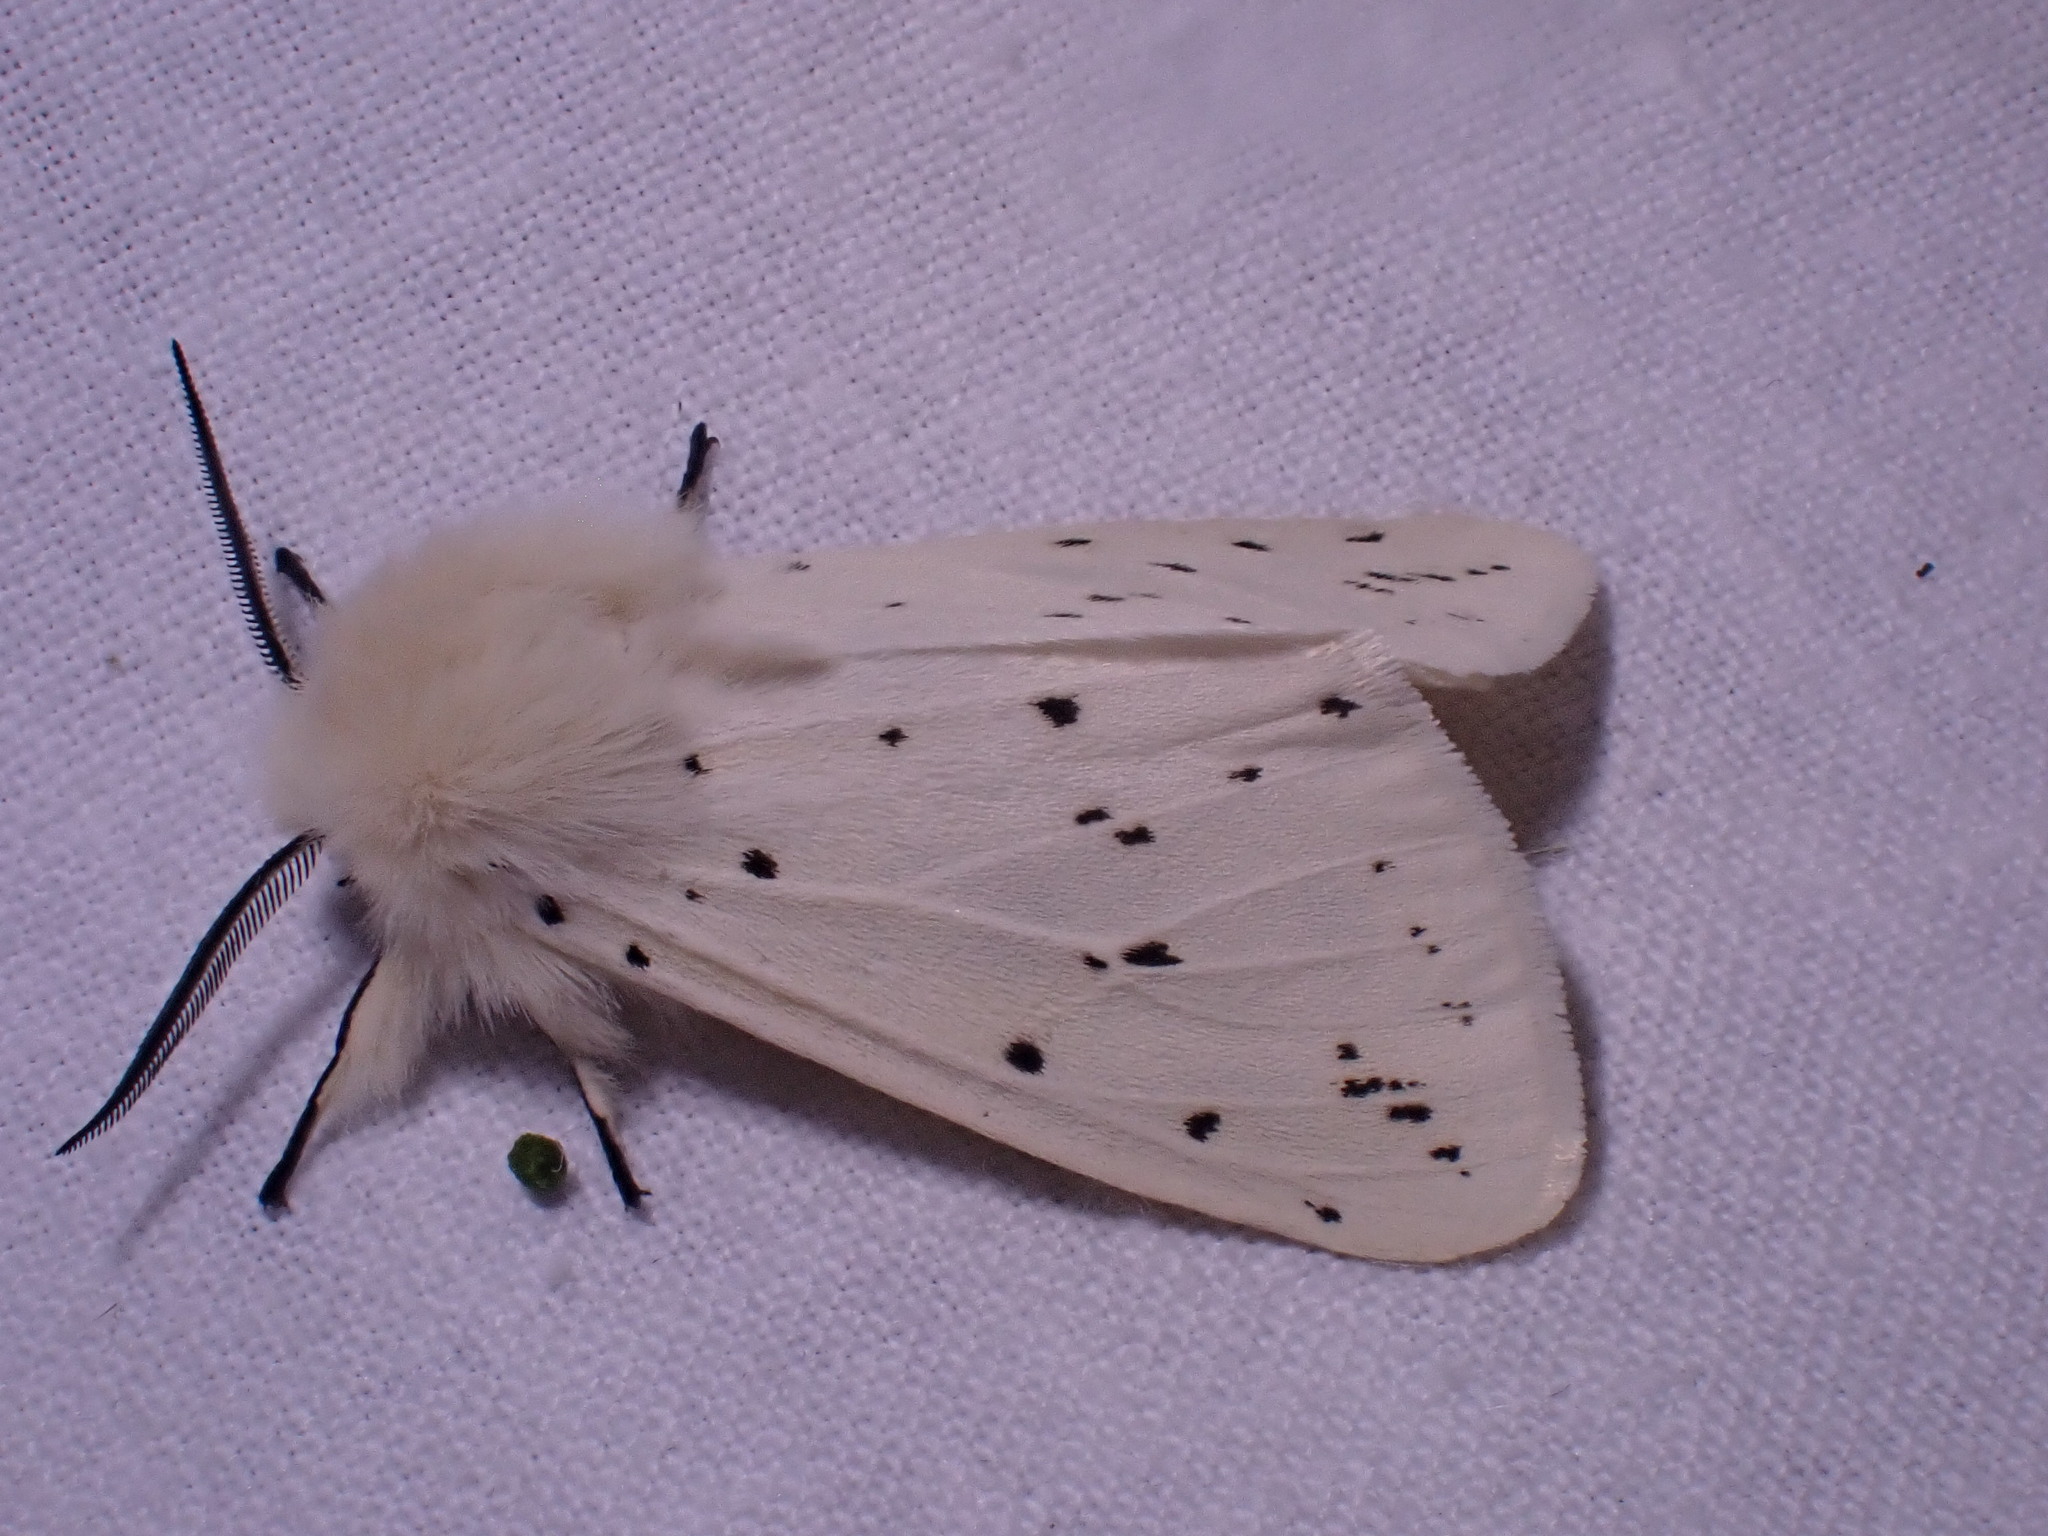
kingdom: Animalia
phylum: Arthropoda
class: Insecta
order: Lepidoptera
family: Erebidae
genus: Spilosoma
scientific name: Spilosoma lubricipeda
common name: White ermine
